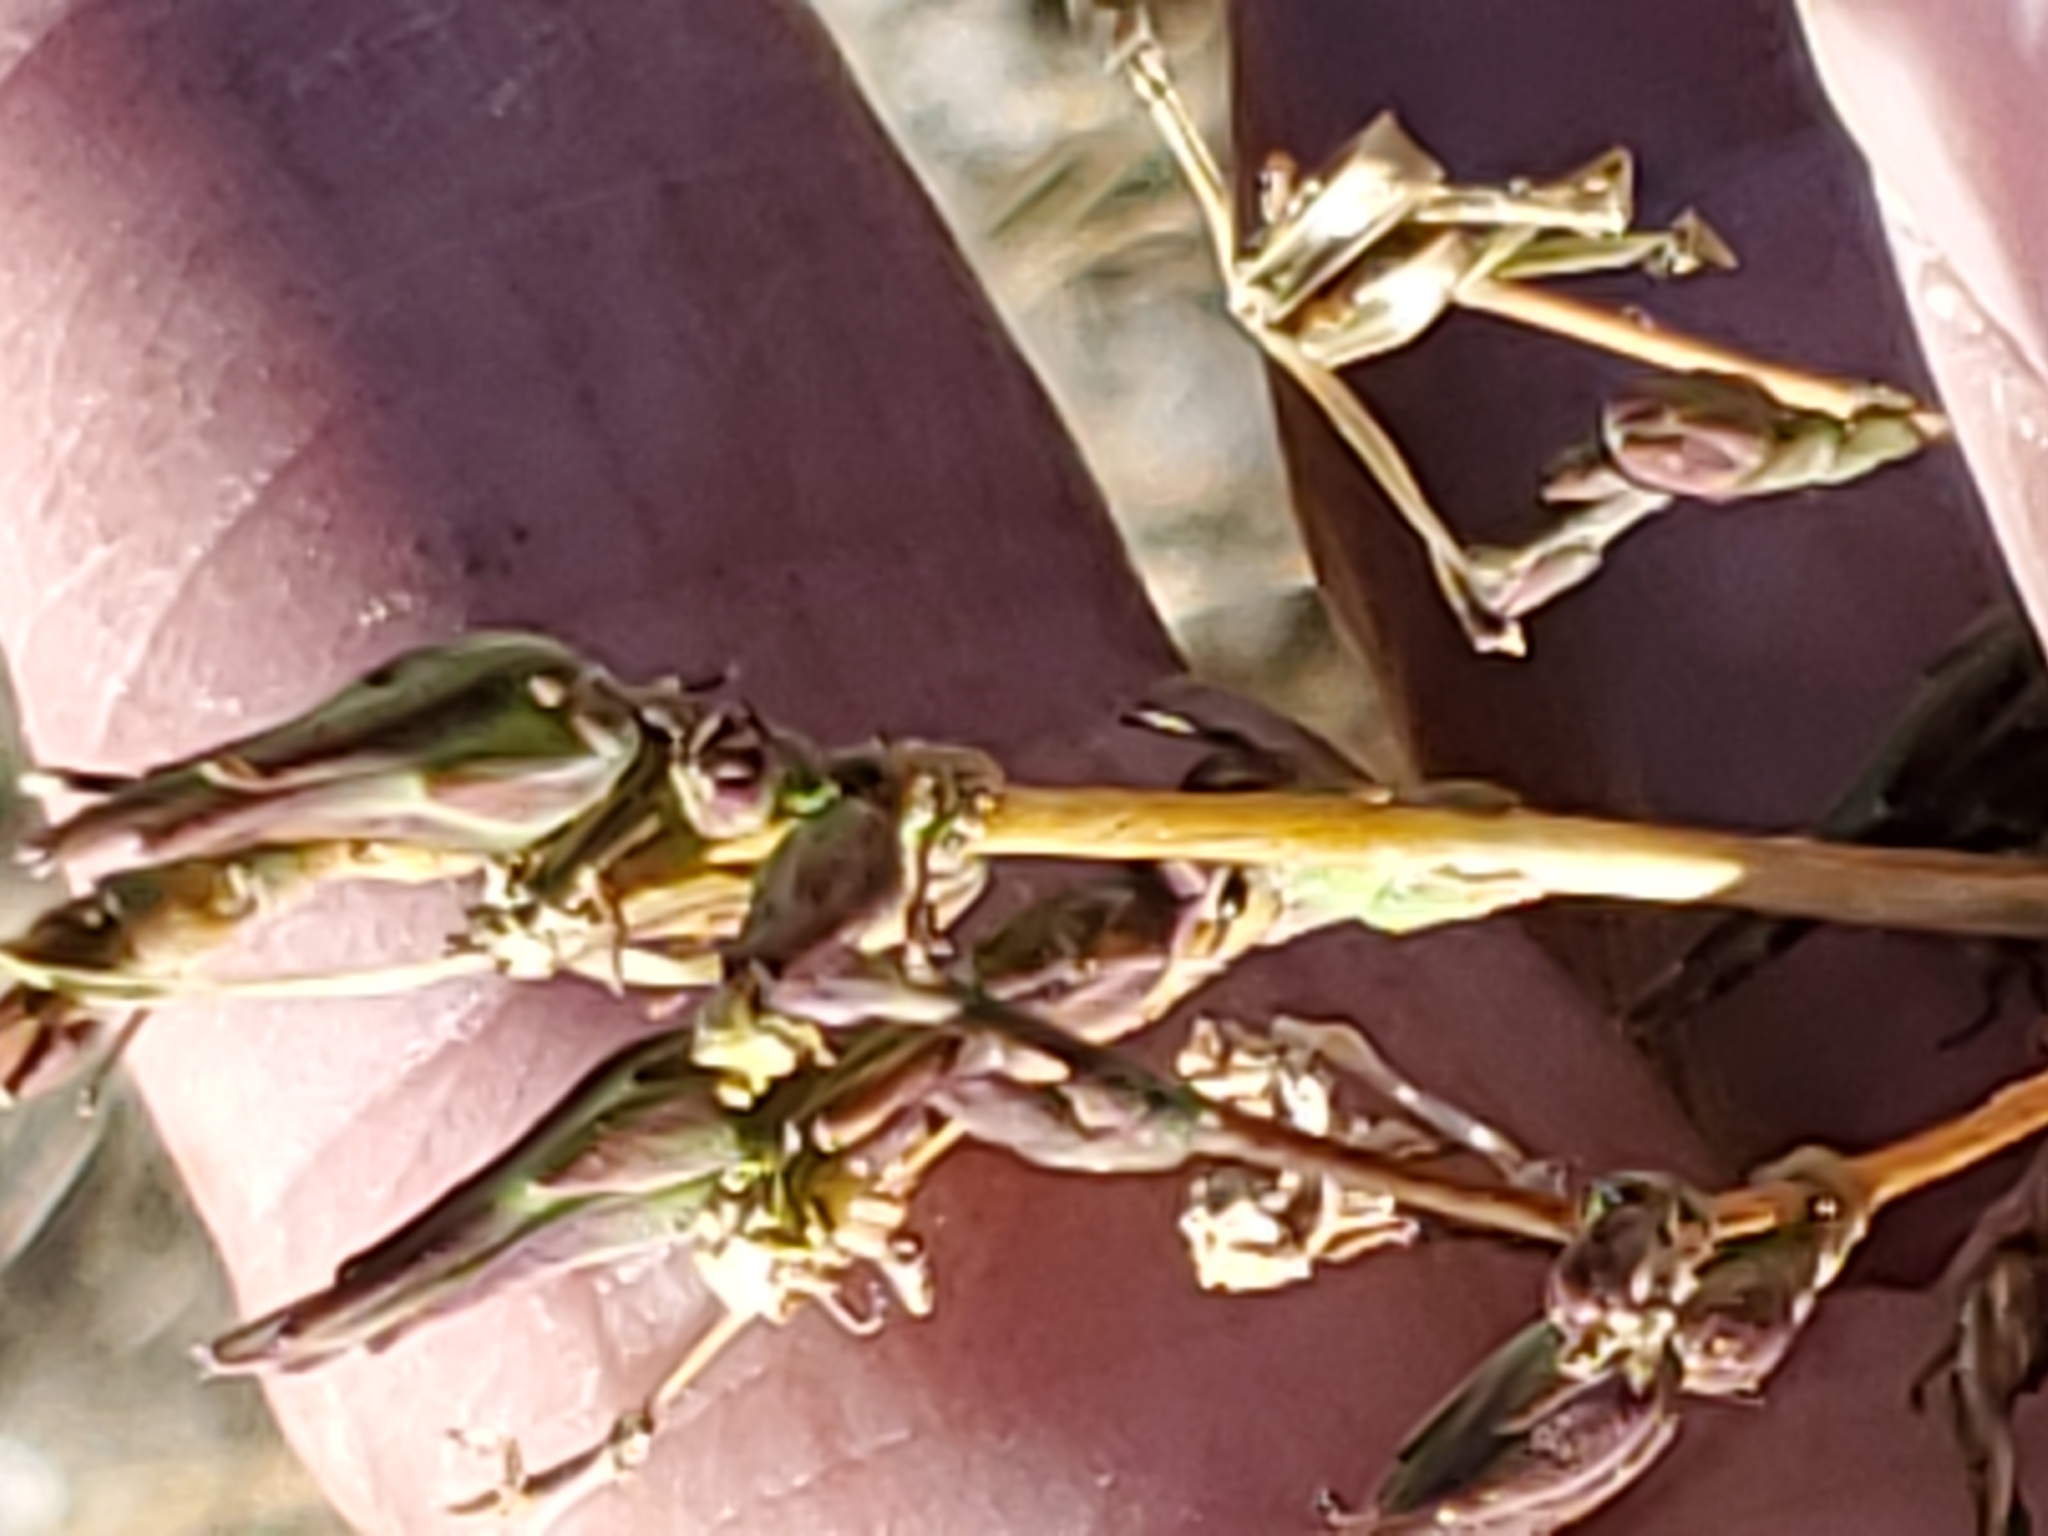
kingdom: Plantae
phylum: Tracheophyta
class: Magnoliopsida
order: Asterales
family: Asteraceae
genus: Lactuca
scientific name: Lactuca serriola
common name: Prickly lettuce
